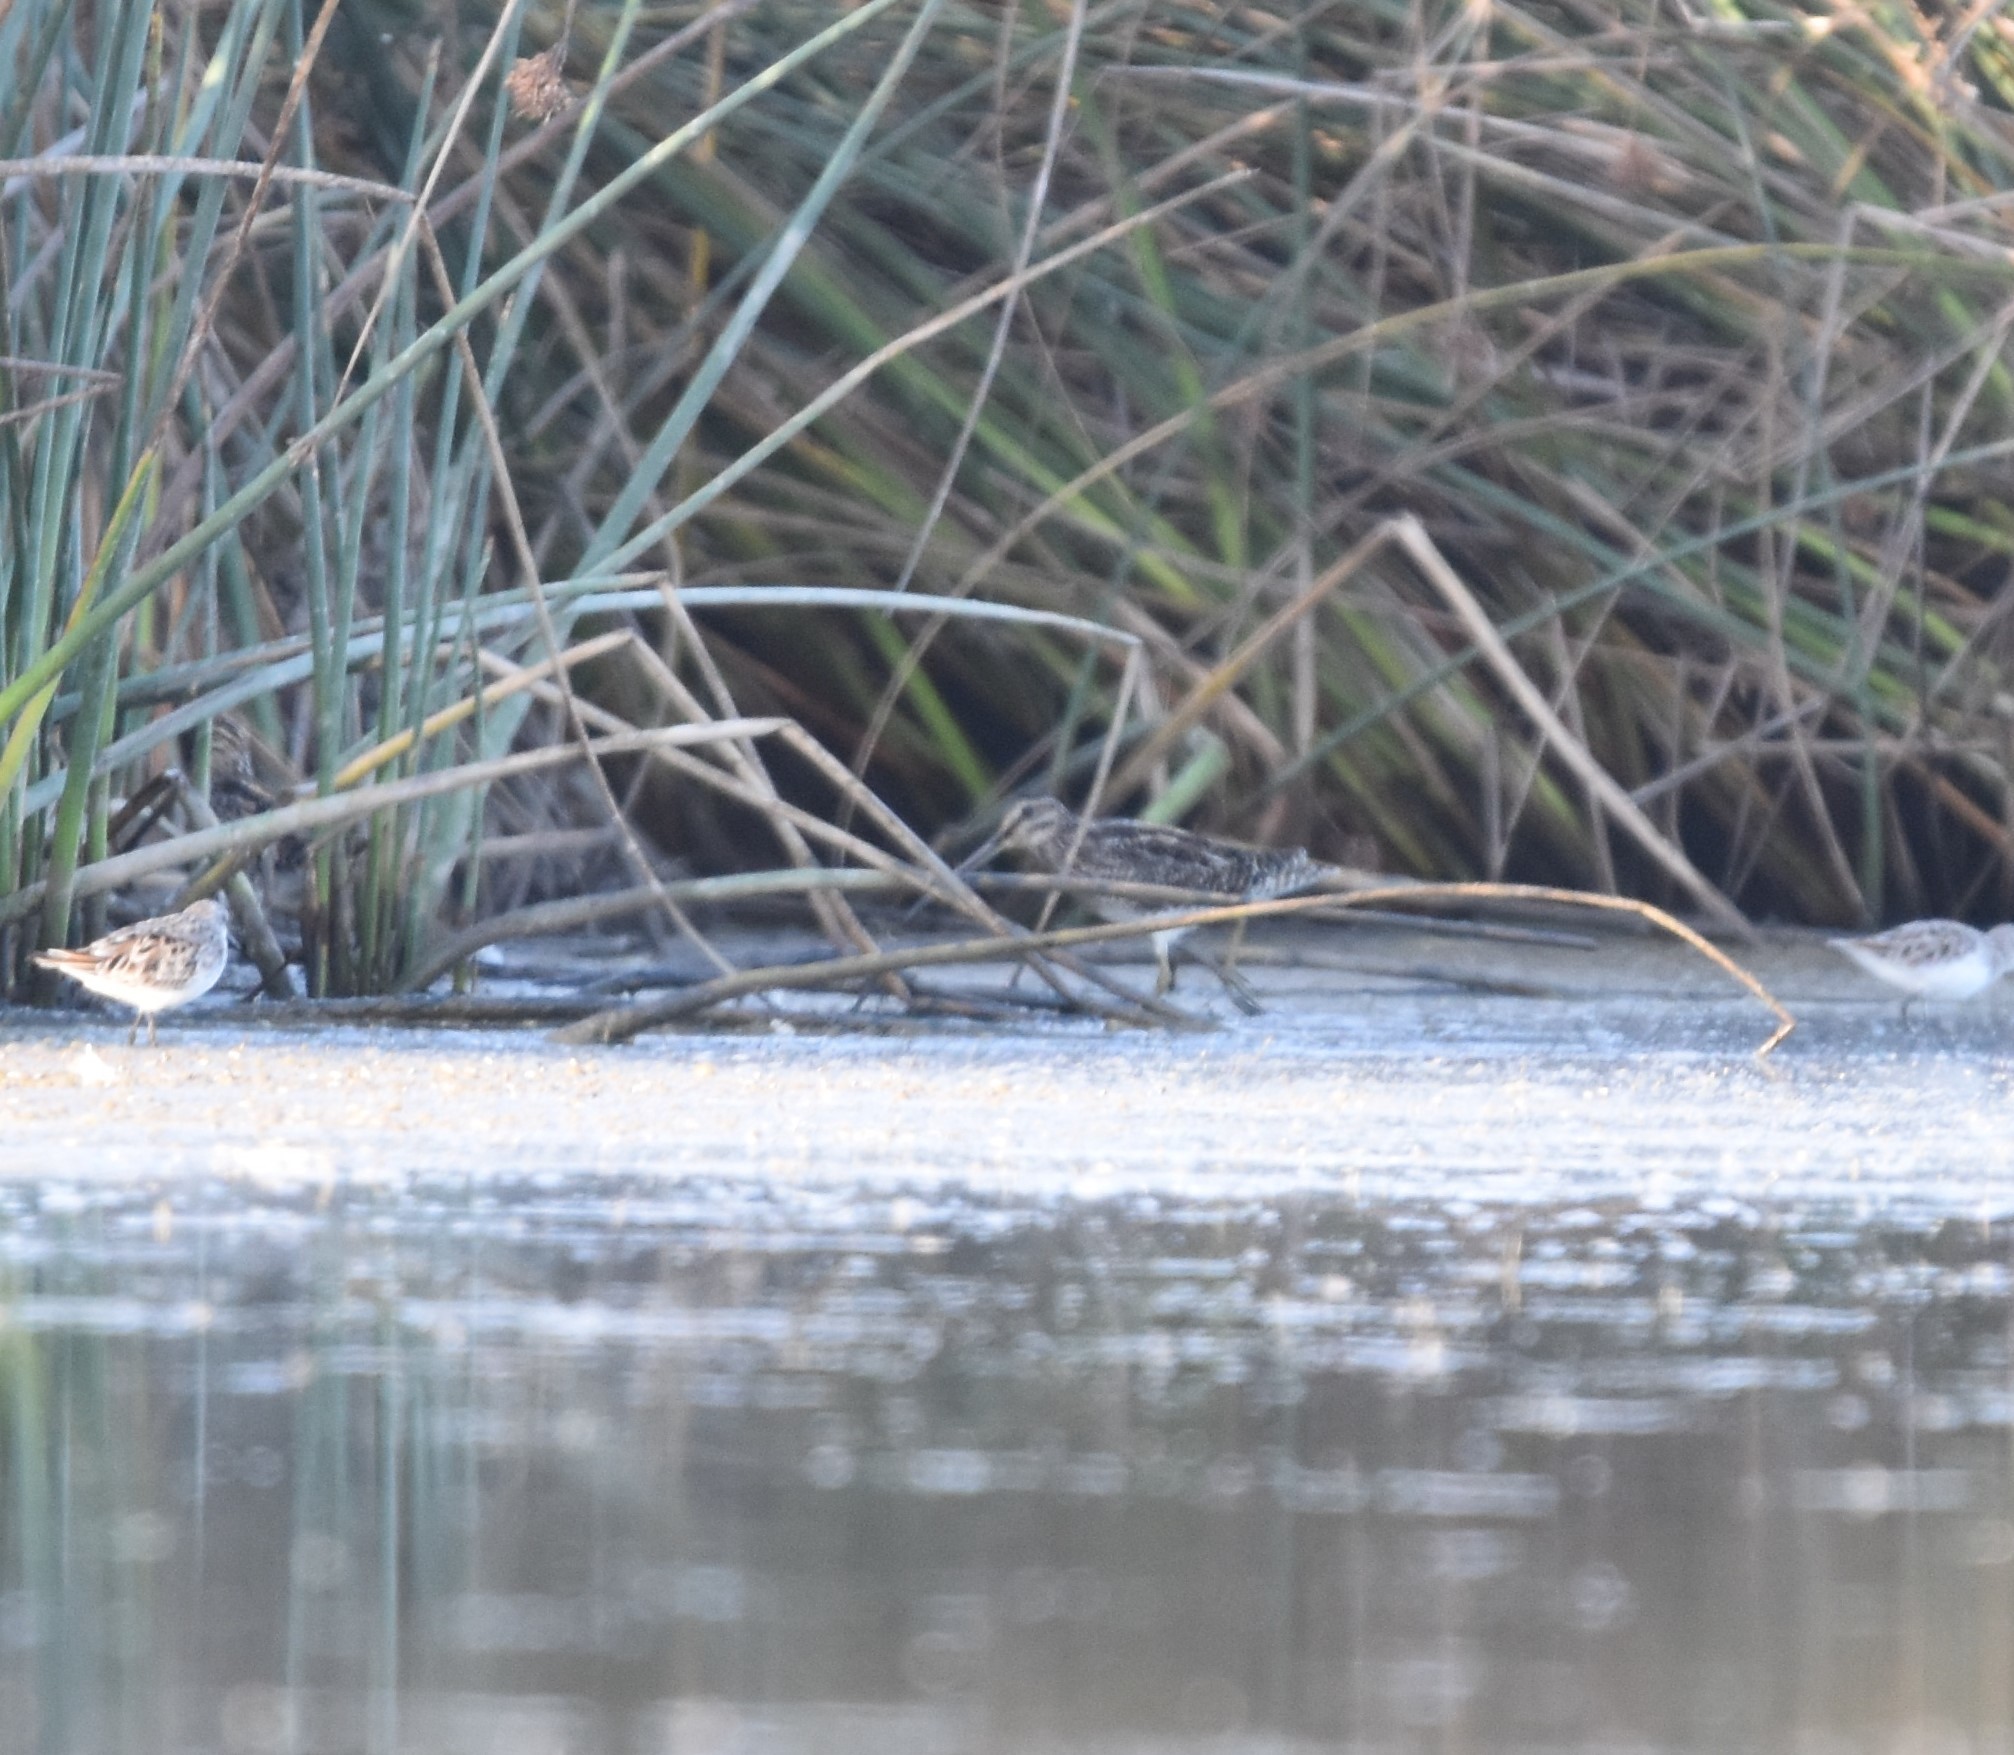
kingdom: Animalia
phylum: Chordata
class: Aves
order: Charadriiformes
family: Scolopacidae
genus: Gallinago
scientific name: Gallinago nigripennis
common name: African snipe
